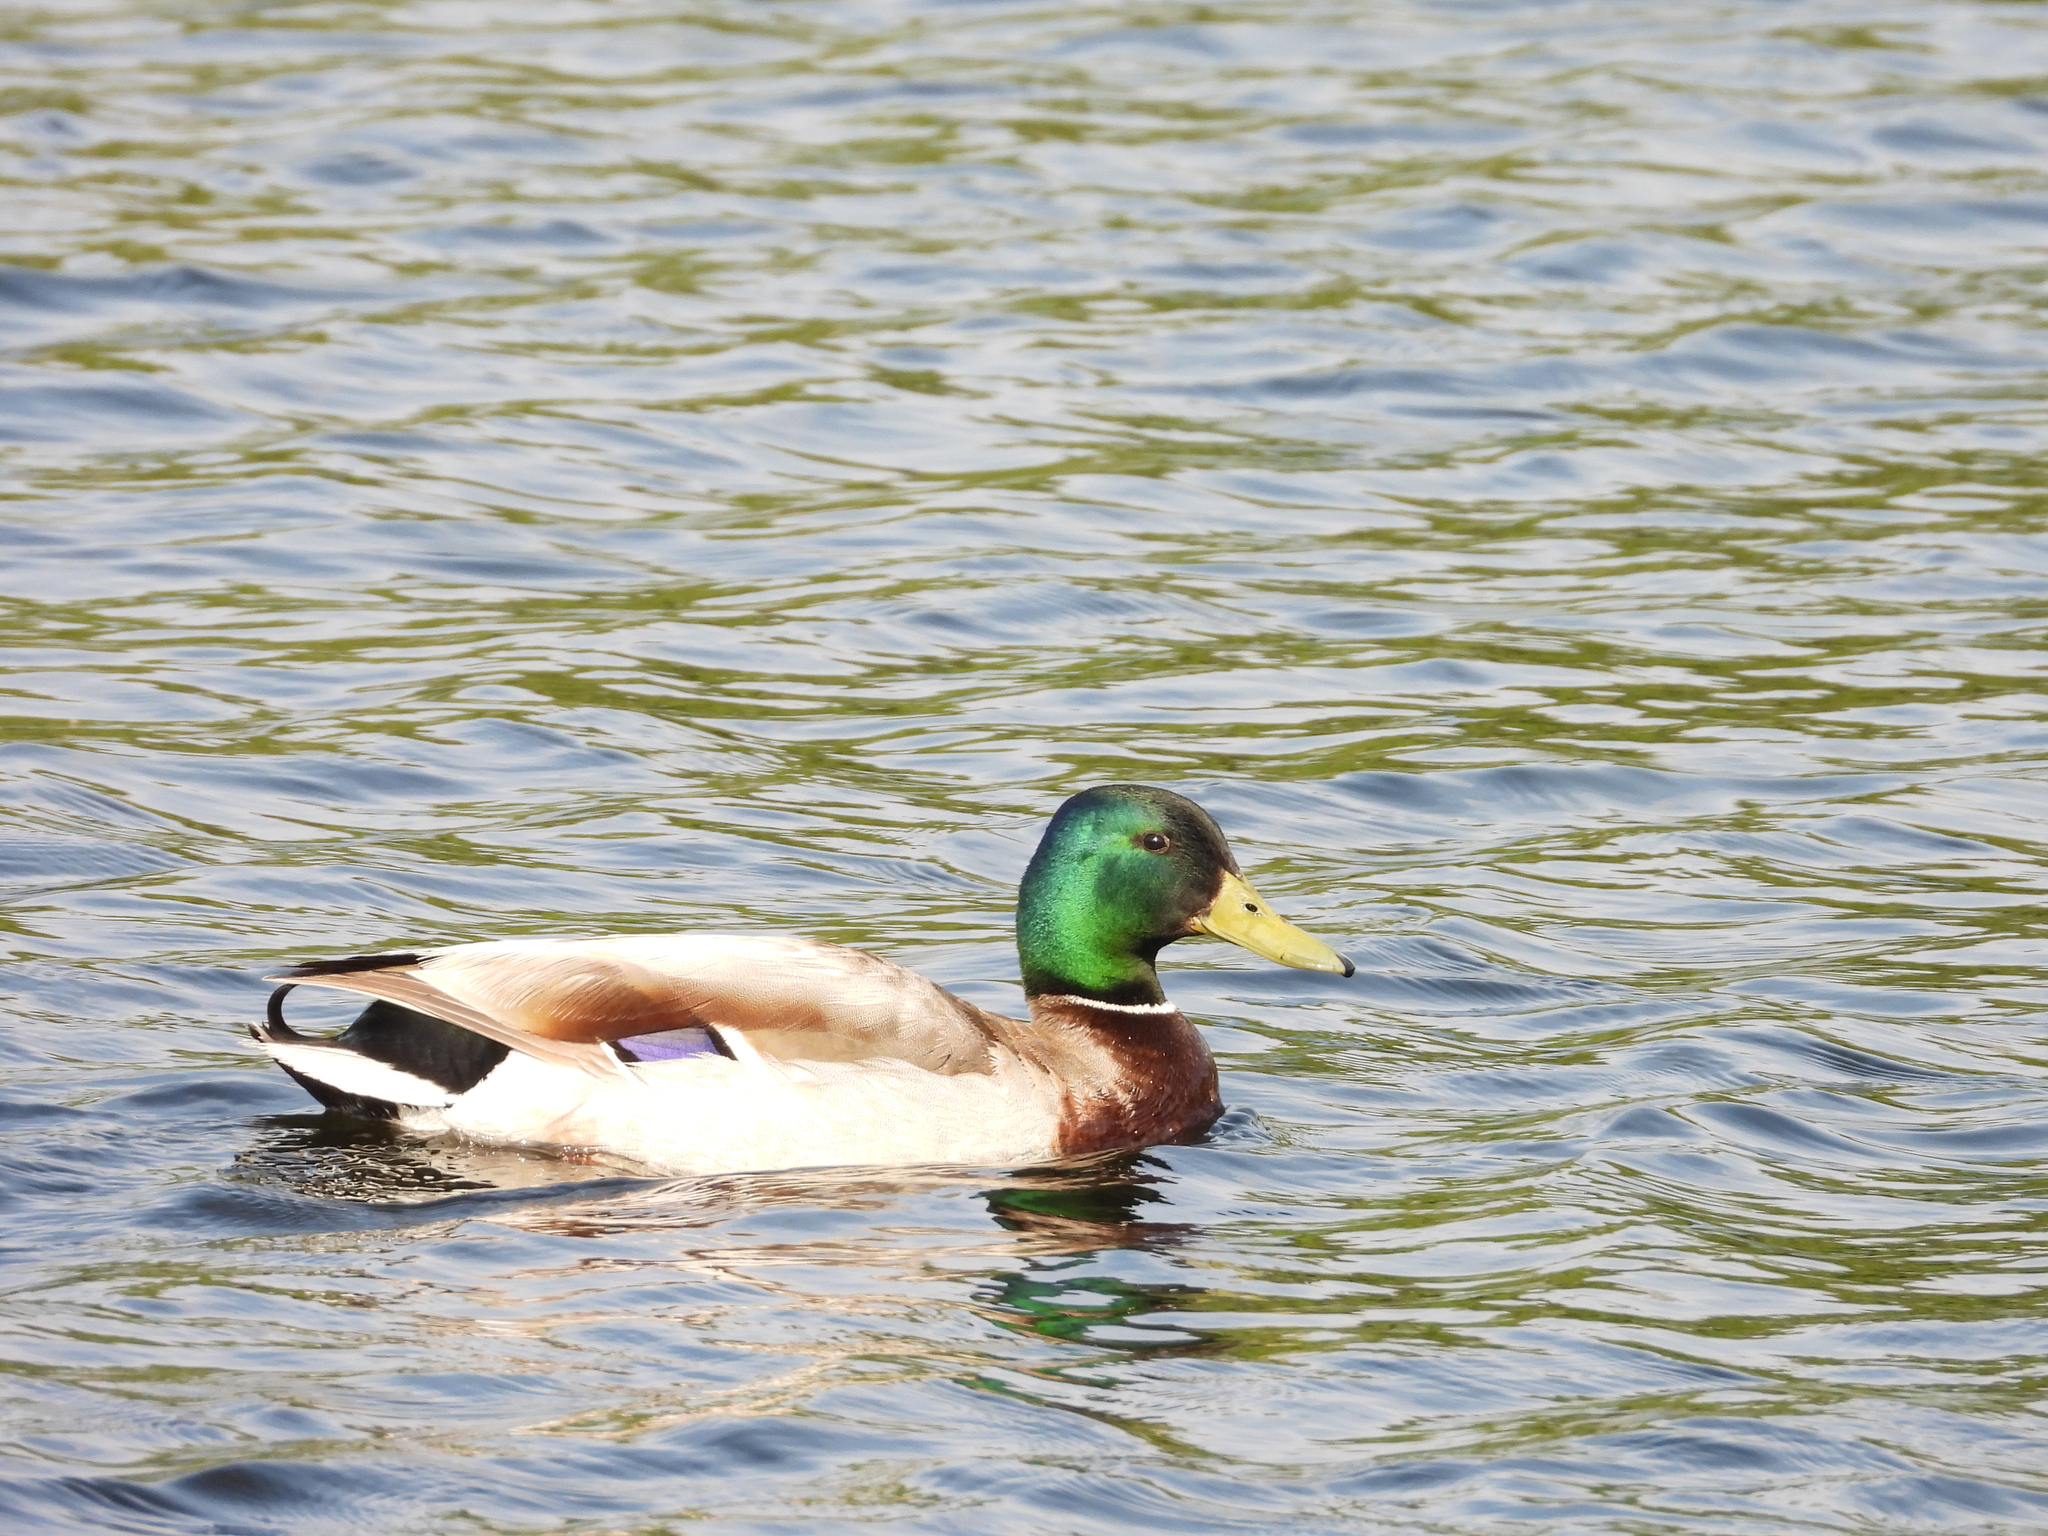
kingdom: Animalia
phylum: Chordata
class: Aves
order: Anseriformes
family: Anatidae
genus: Anas
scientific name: Anas platyrhynchos
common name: Mallard
